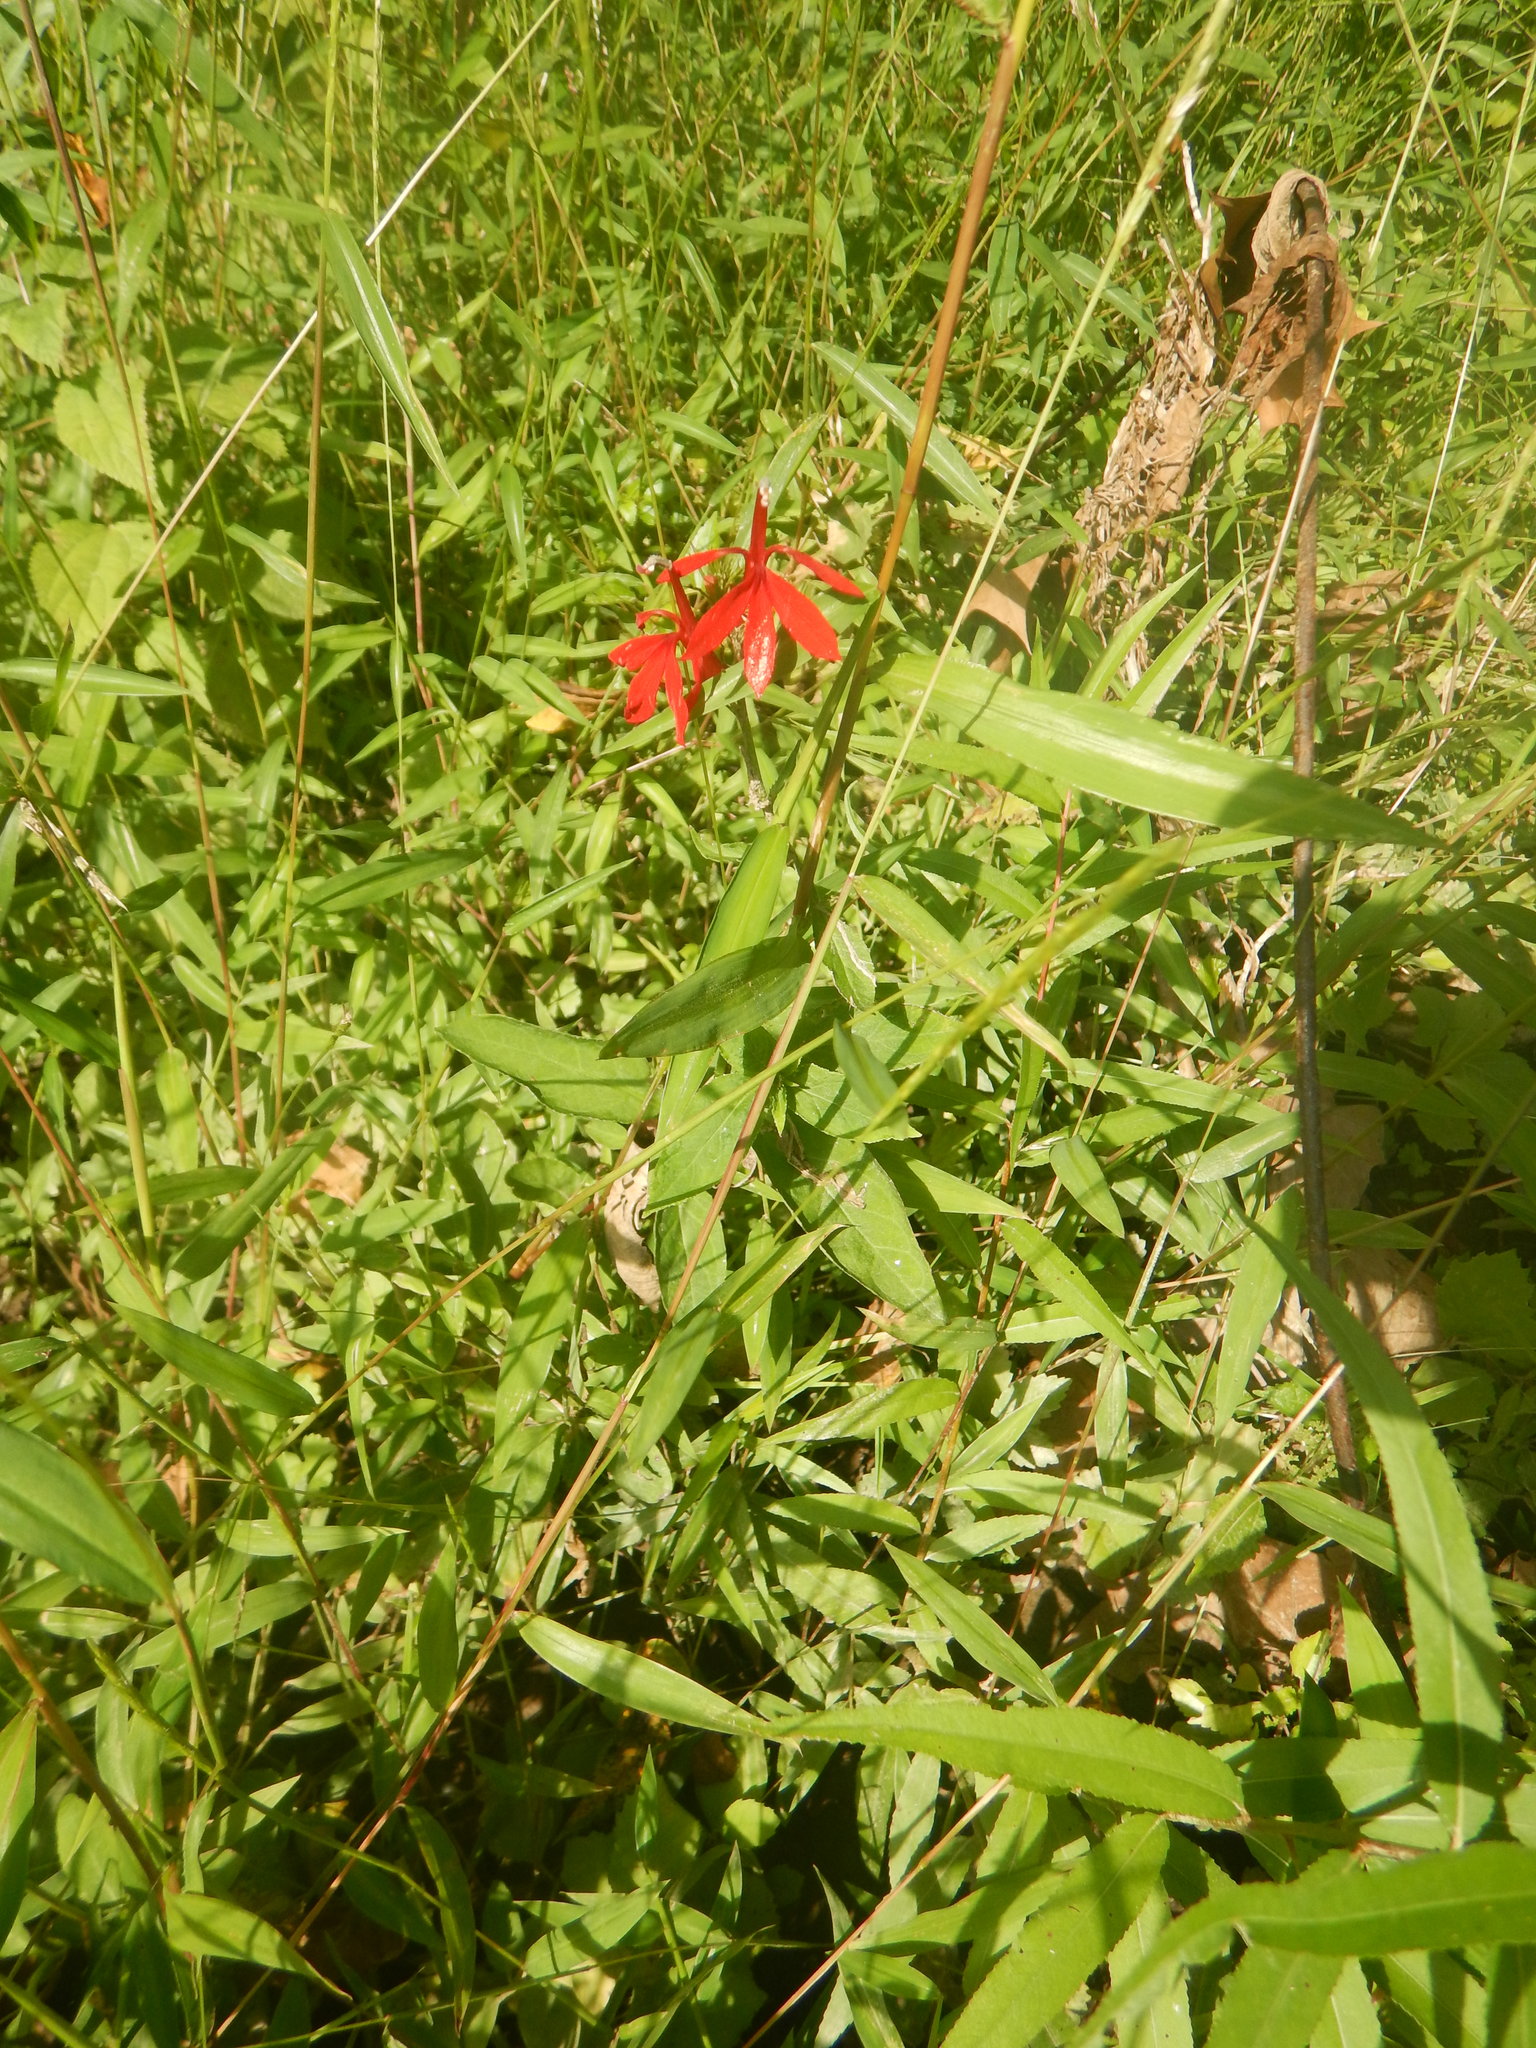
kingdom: Plantae
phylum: Tracheophyta
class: Magnoliopsida
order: Asterales
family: Campanulaceae
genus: Lobelia
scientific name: Lobelia cardinalis
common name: Cardinal flower
